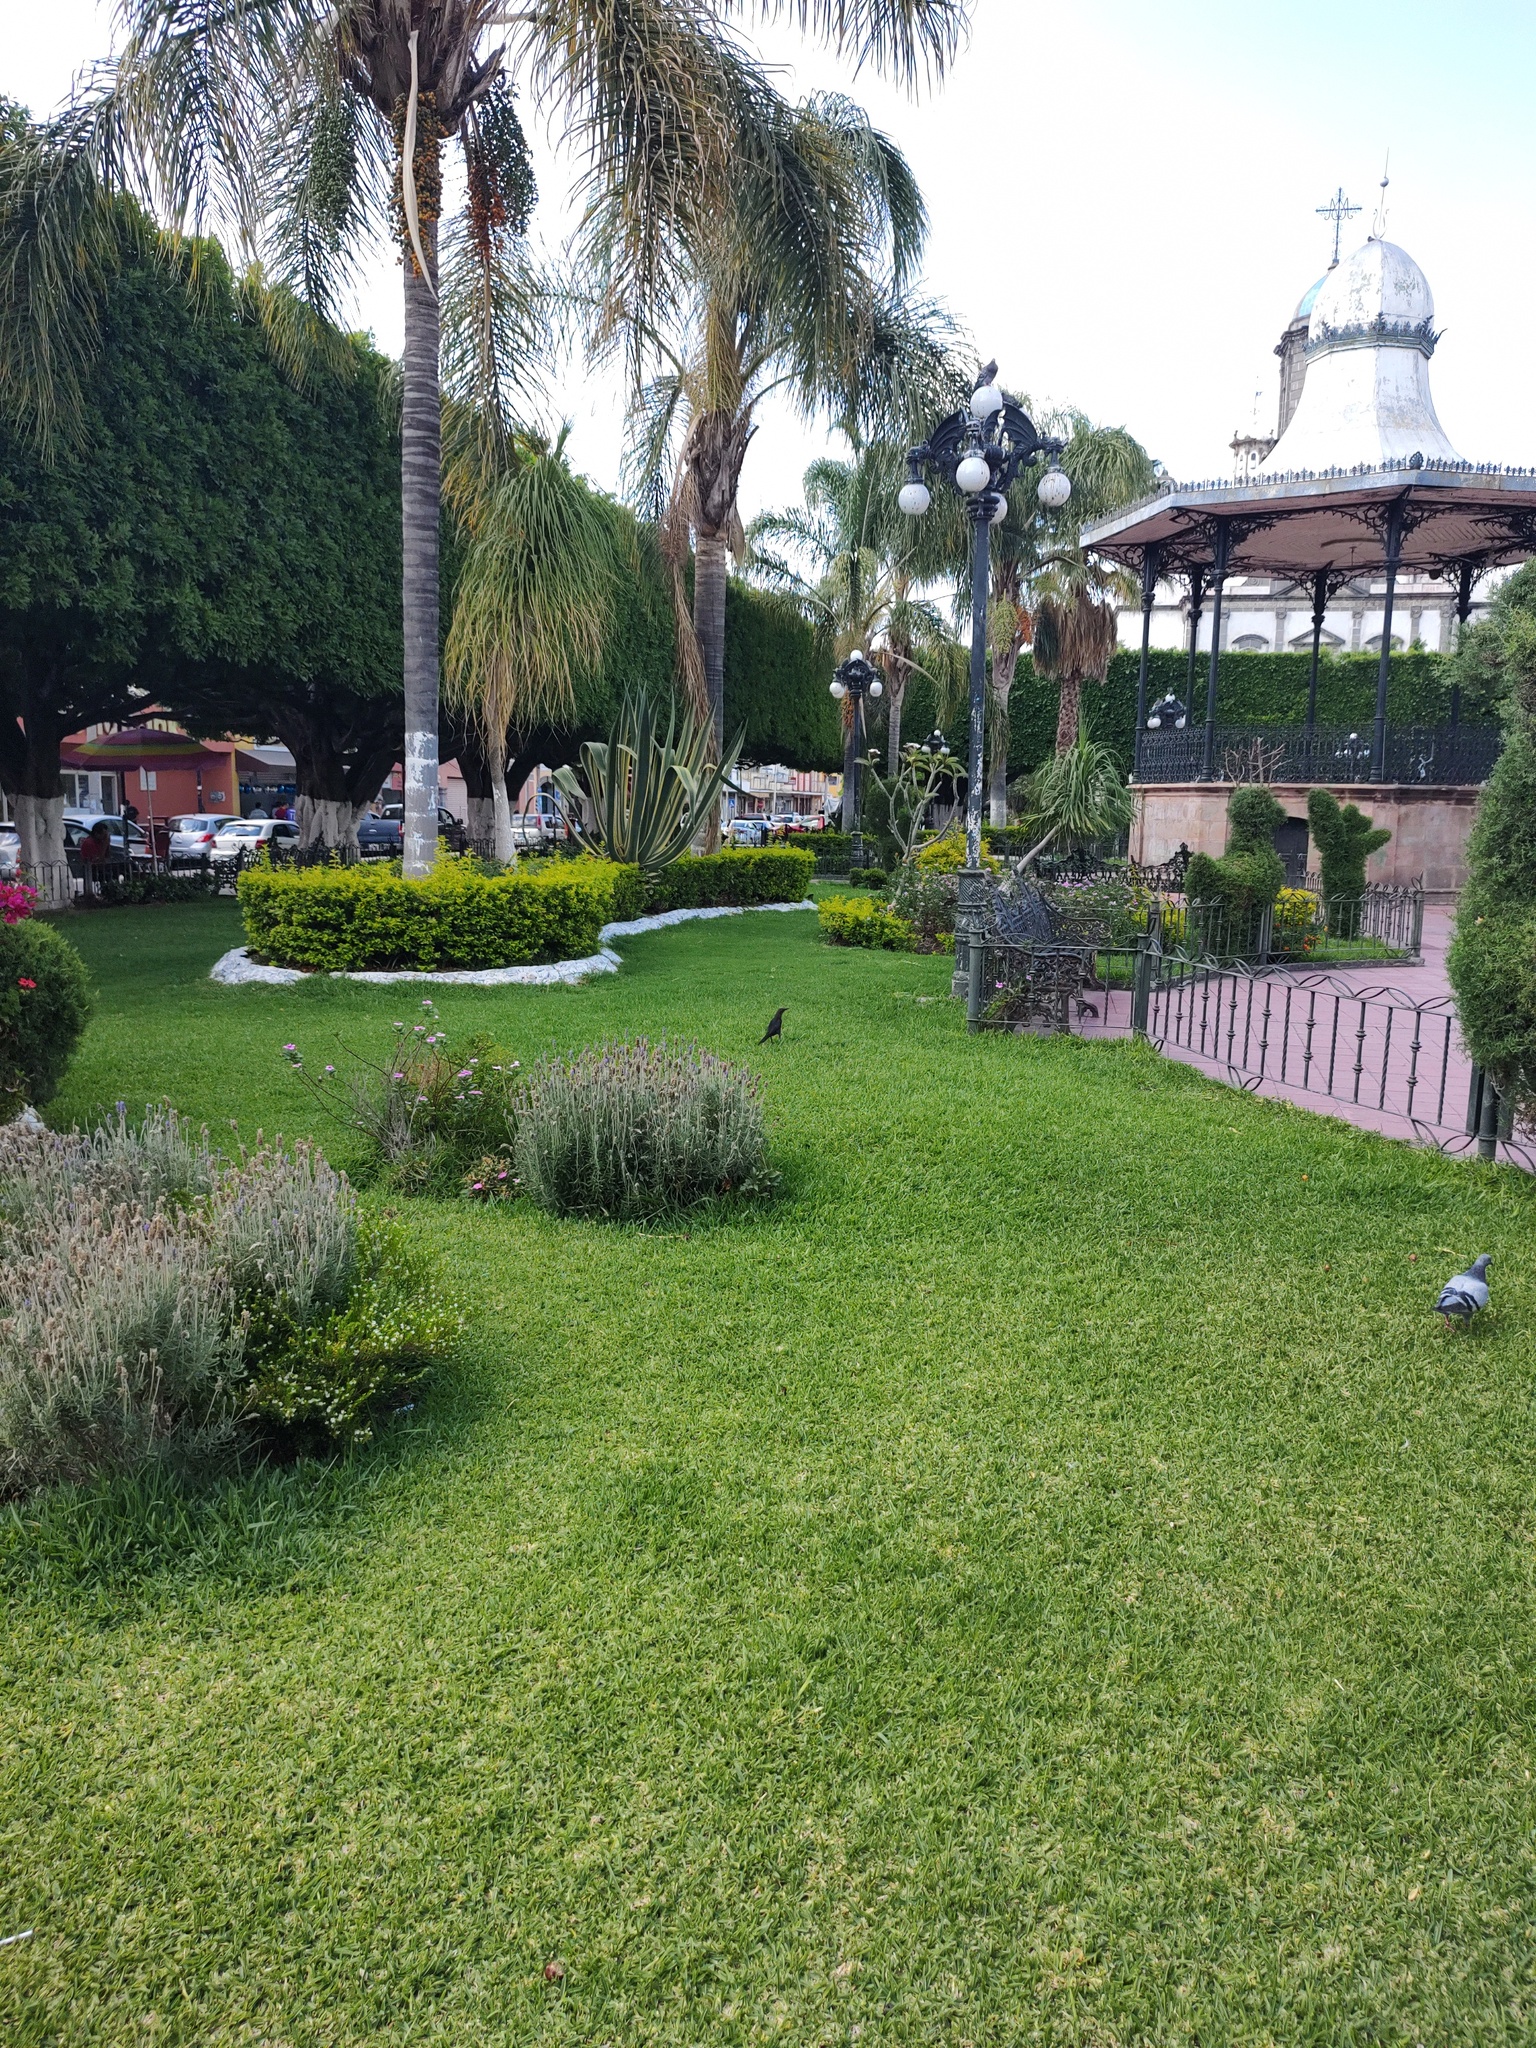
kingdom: Animalia
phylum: Chordata
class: Aves
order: Passeriformes
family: Icteridae
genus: Quiscalus
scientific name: Quiscalus mexicanus
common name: Great-tailed grackle
